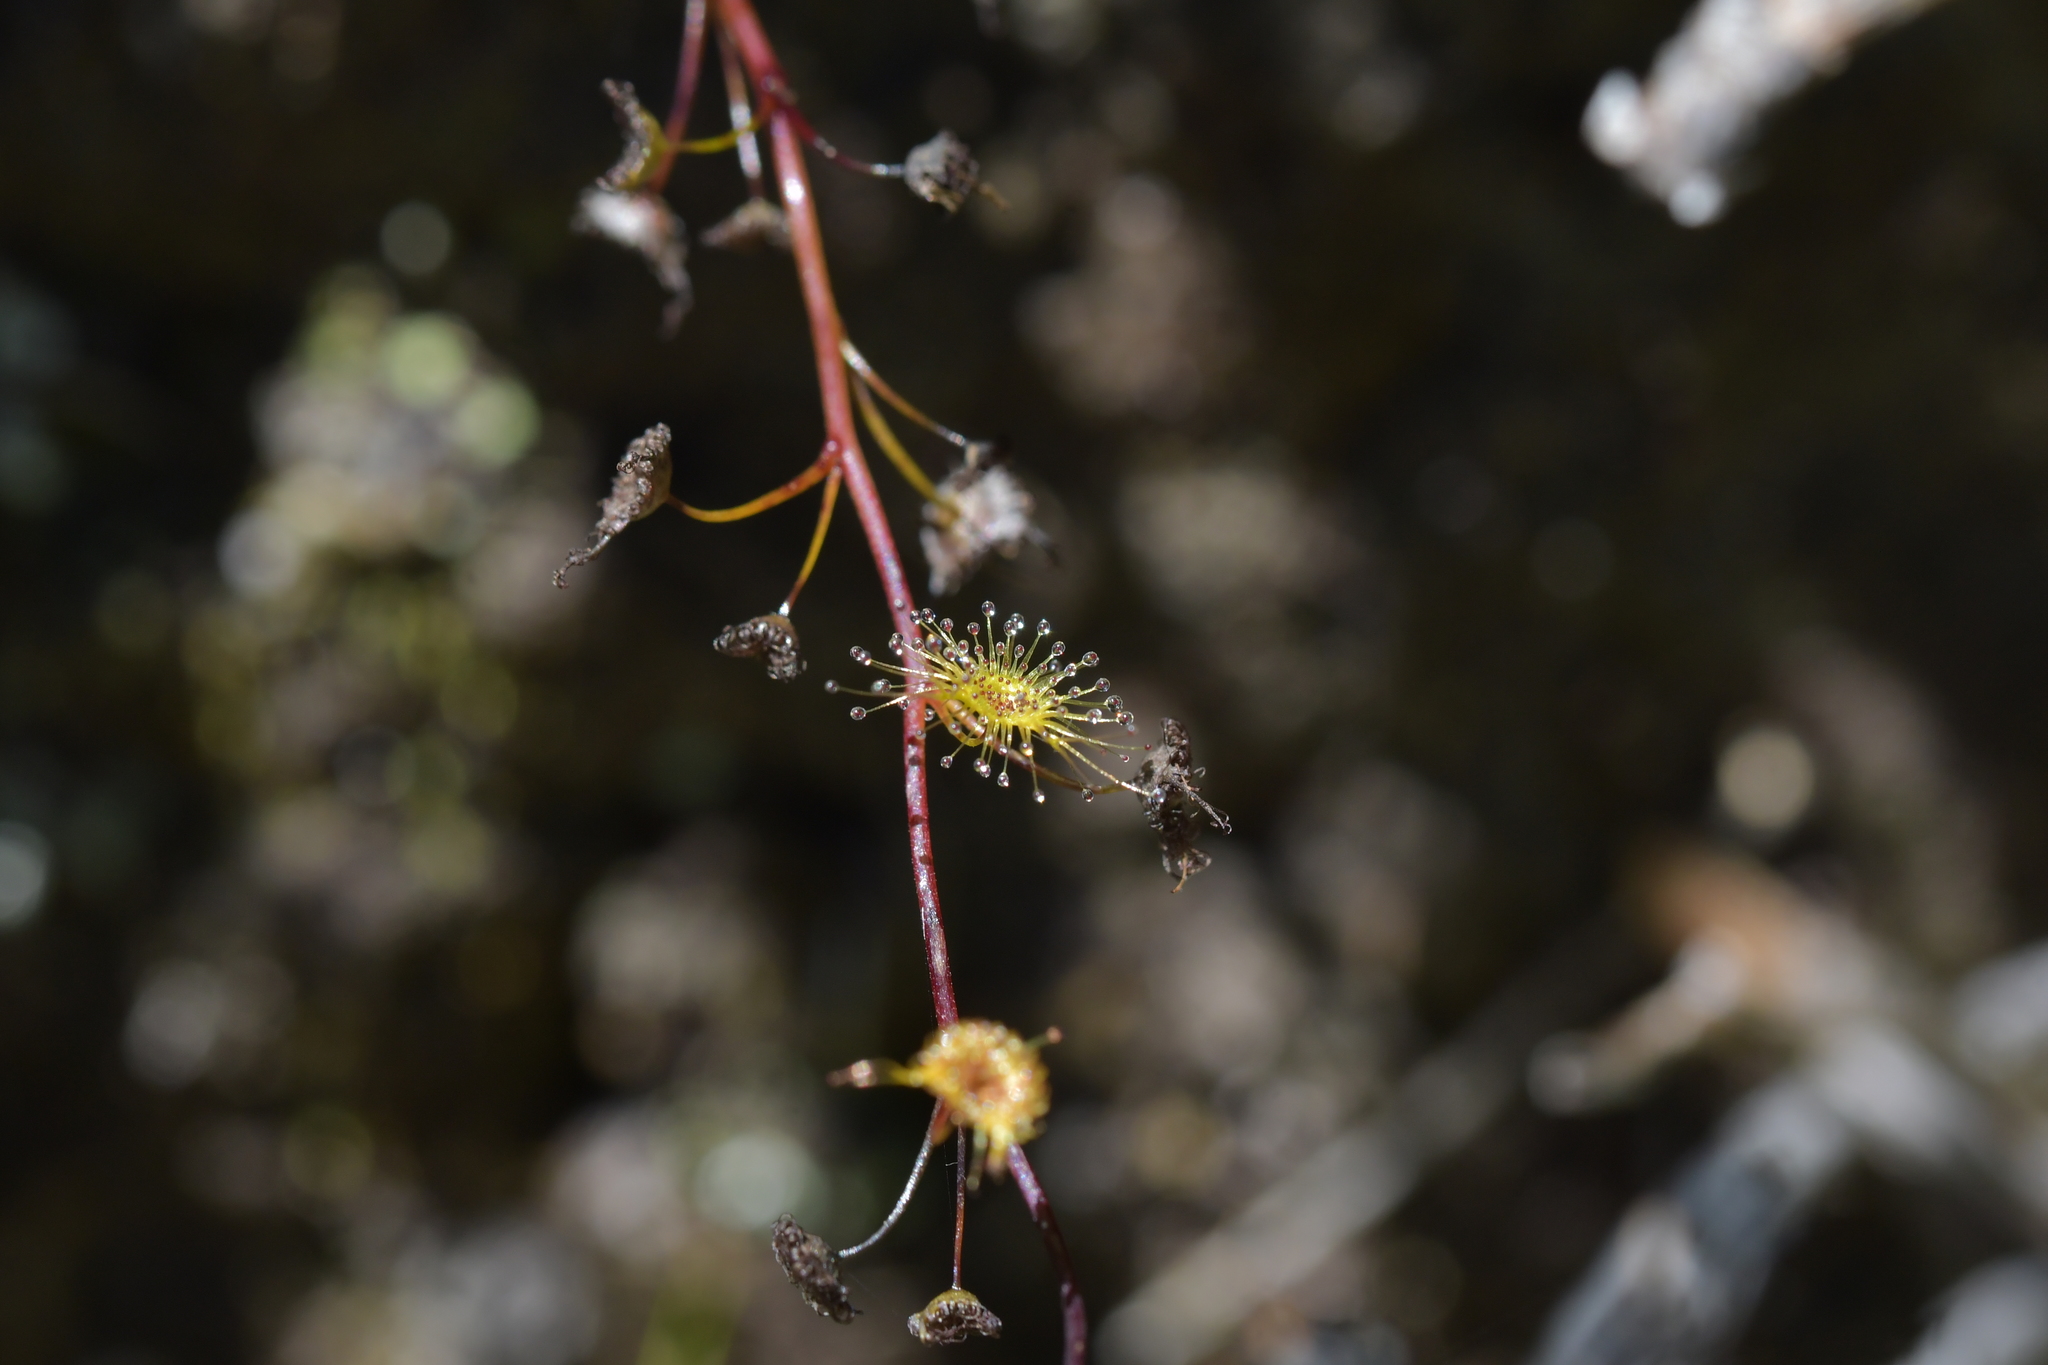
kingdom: Plantae
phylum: Tracheophyta
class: Magnoliopsida
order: Caryophyllales
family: Droseraceae
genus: Drosera
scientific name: Drosera peltata
